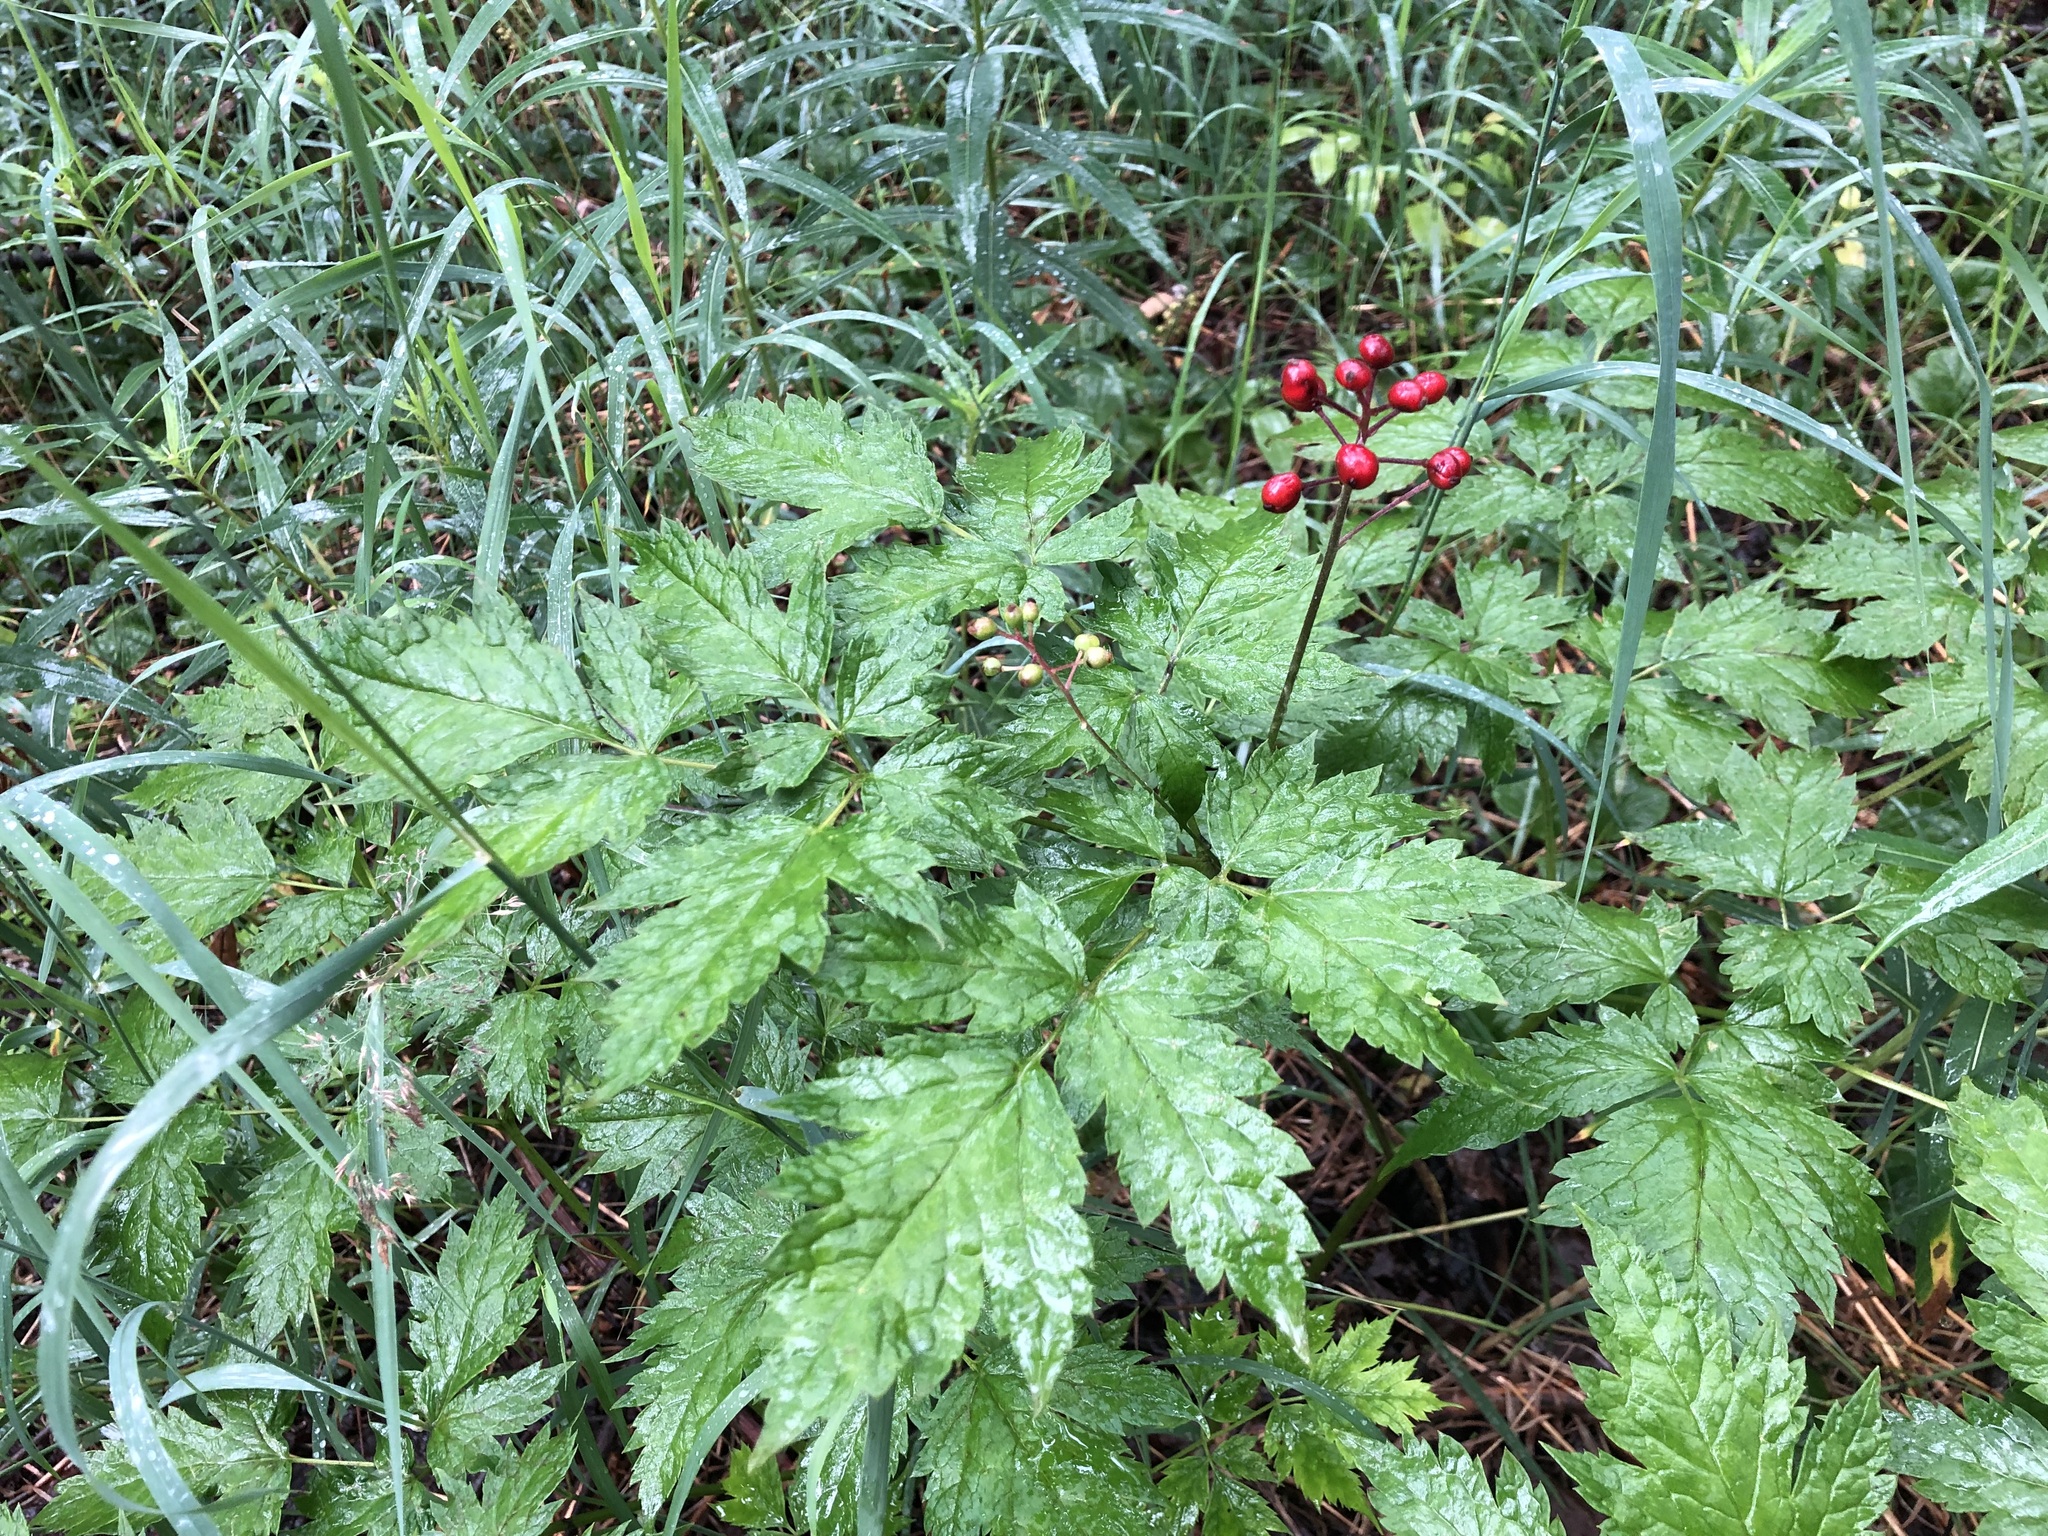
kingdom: Plantae
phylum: Tracheophyta
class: Magnoliopsida
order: Ranunculales
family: Ranunculaceae
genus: Actaea
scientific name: Actaea rubra
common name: Red baneberry
